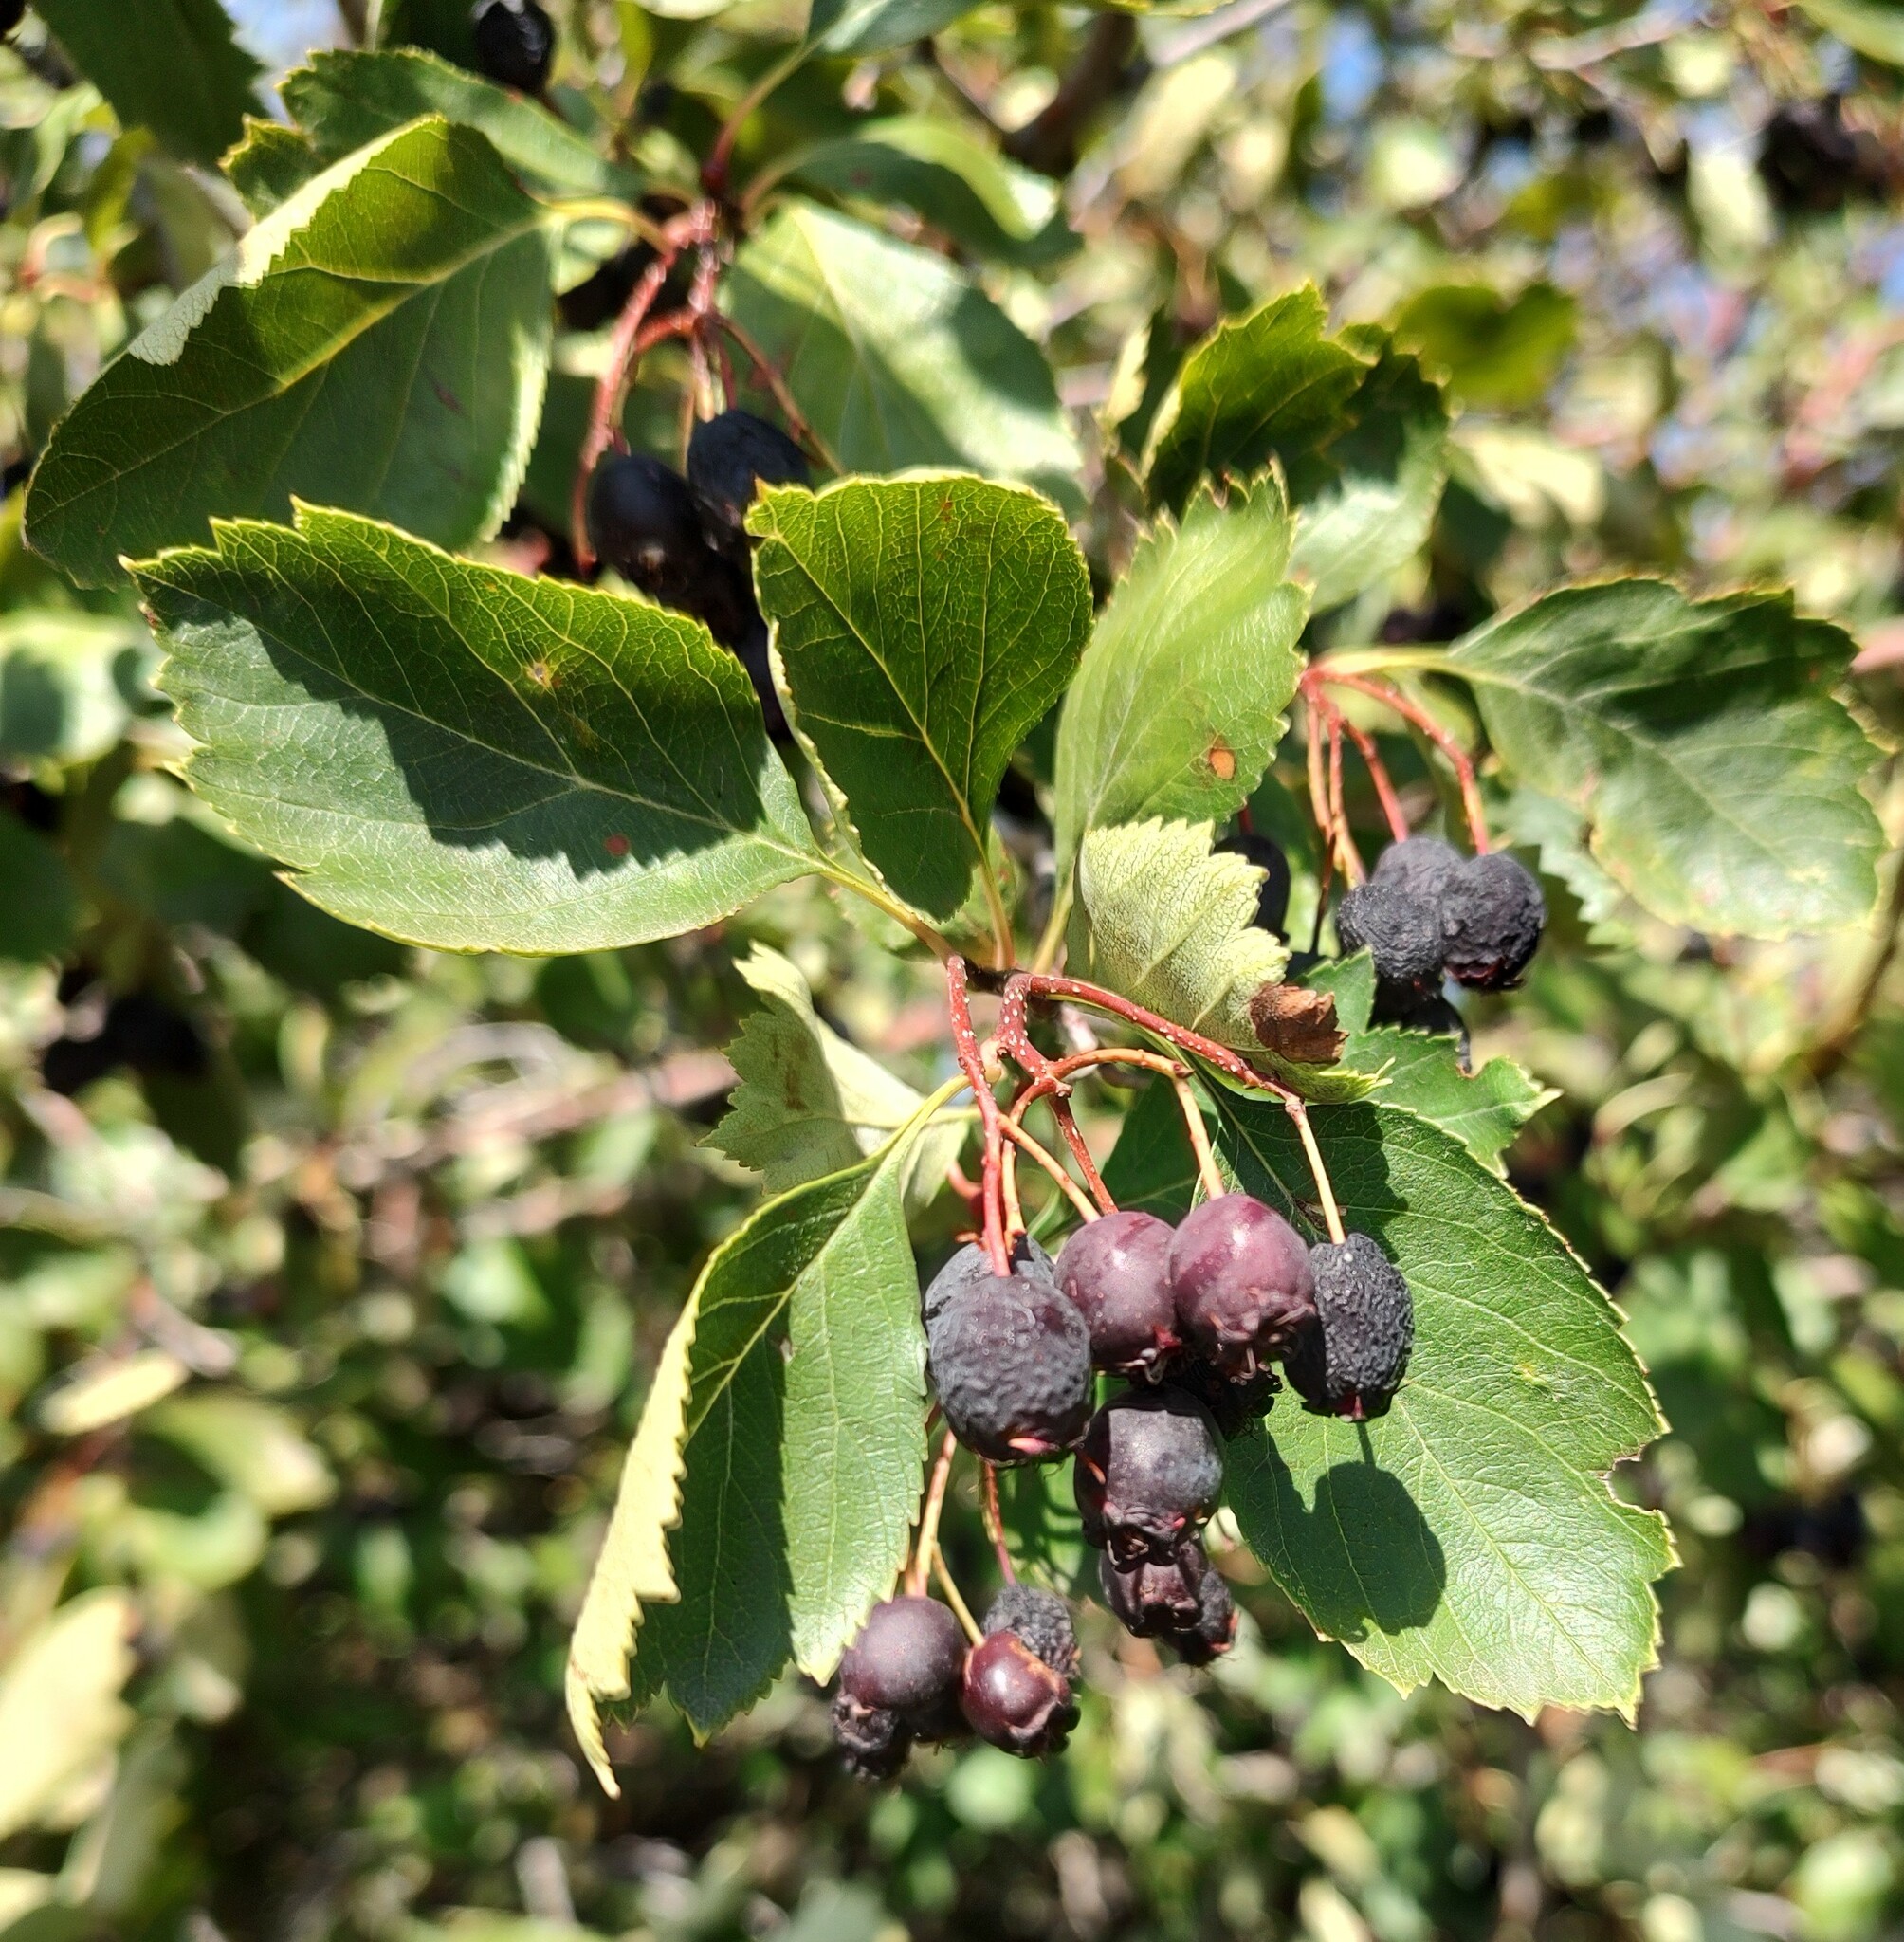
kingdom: Plantae
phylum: Tracheophyta
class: Magnoliopsida
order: Rosales
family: Rosaceae
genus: Crataegus
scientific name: Crataegus douglasii
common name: Black hawthorn
